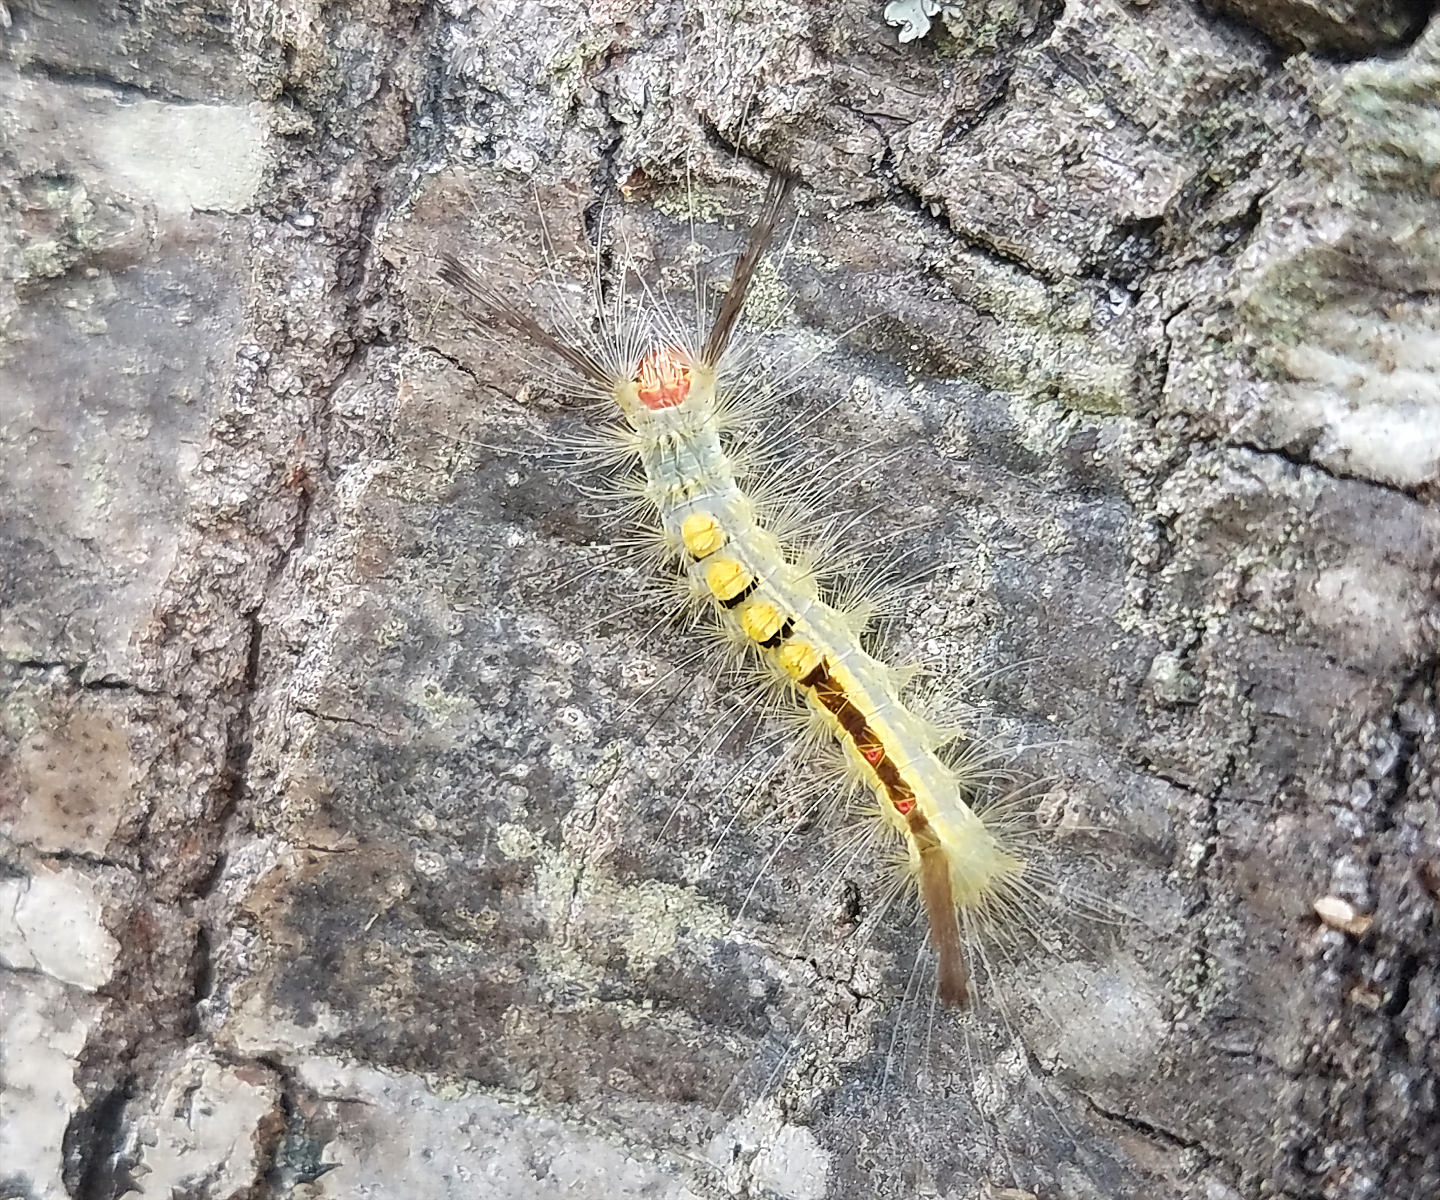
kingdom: Animalia
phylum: Arthropoda
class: Insecta
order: Lepidoptera
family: Erebidae
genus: Orgyia
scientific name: Orgyia leucostigma
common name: White-marked tussock moth
